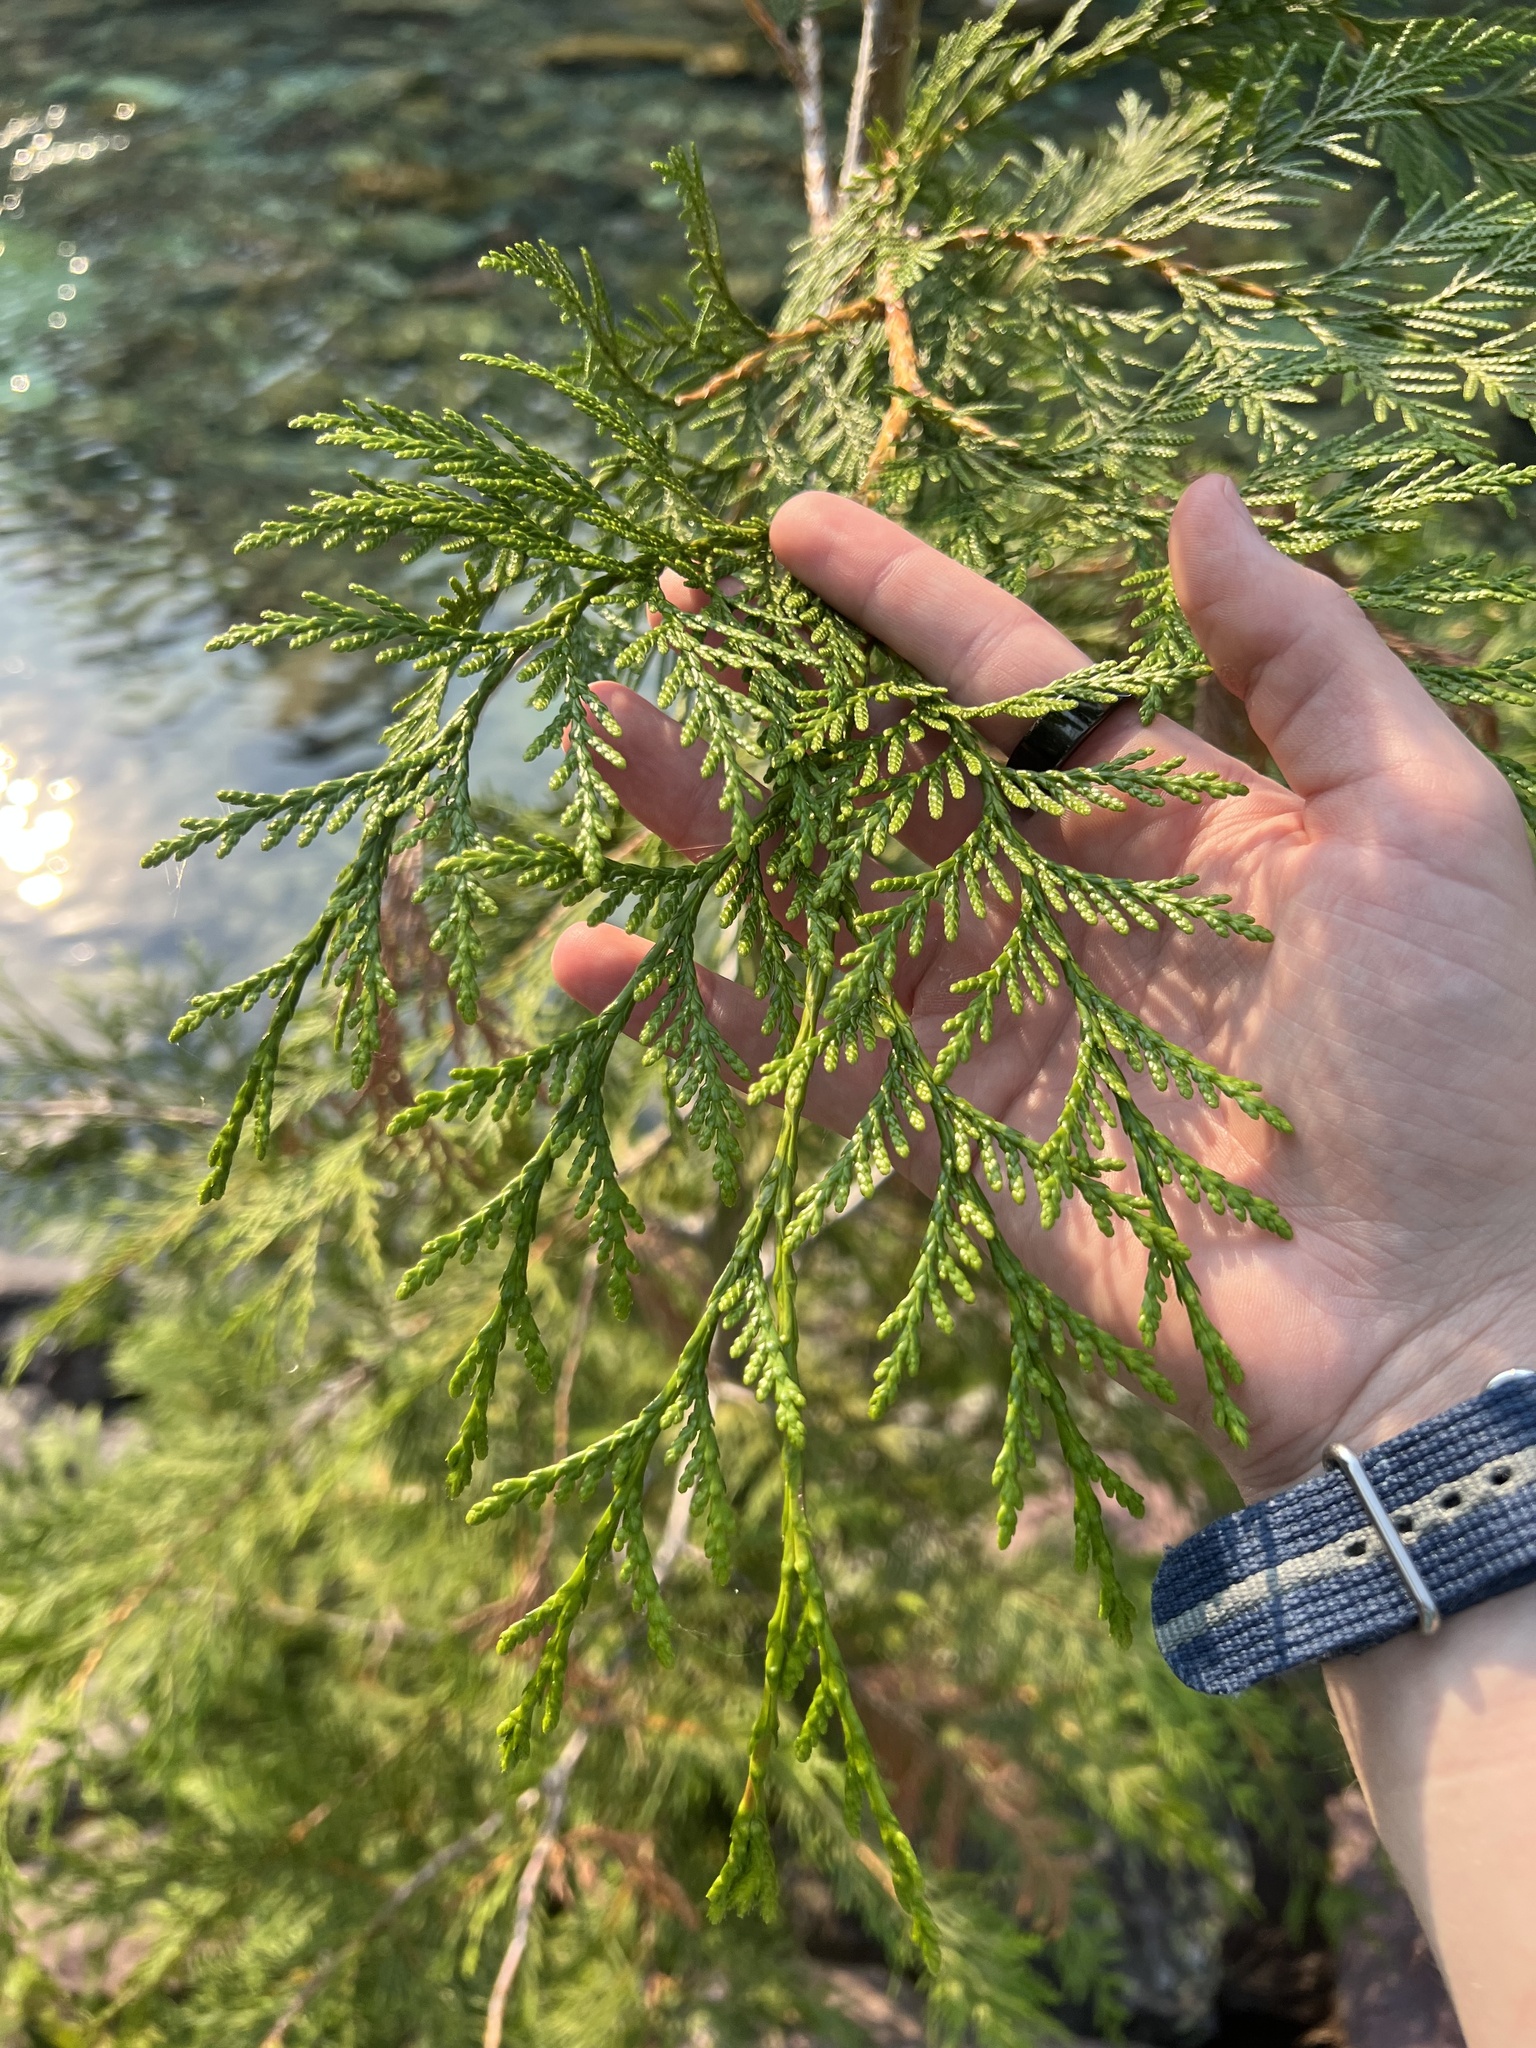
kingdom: Plantae
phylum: Tracheophyta
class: Pinopsida
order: Pinales
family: Cupressaceae
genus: Thuja
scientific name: Thuja plicata
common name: Western red-cedar
